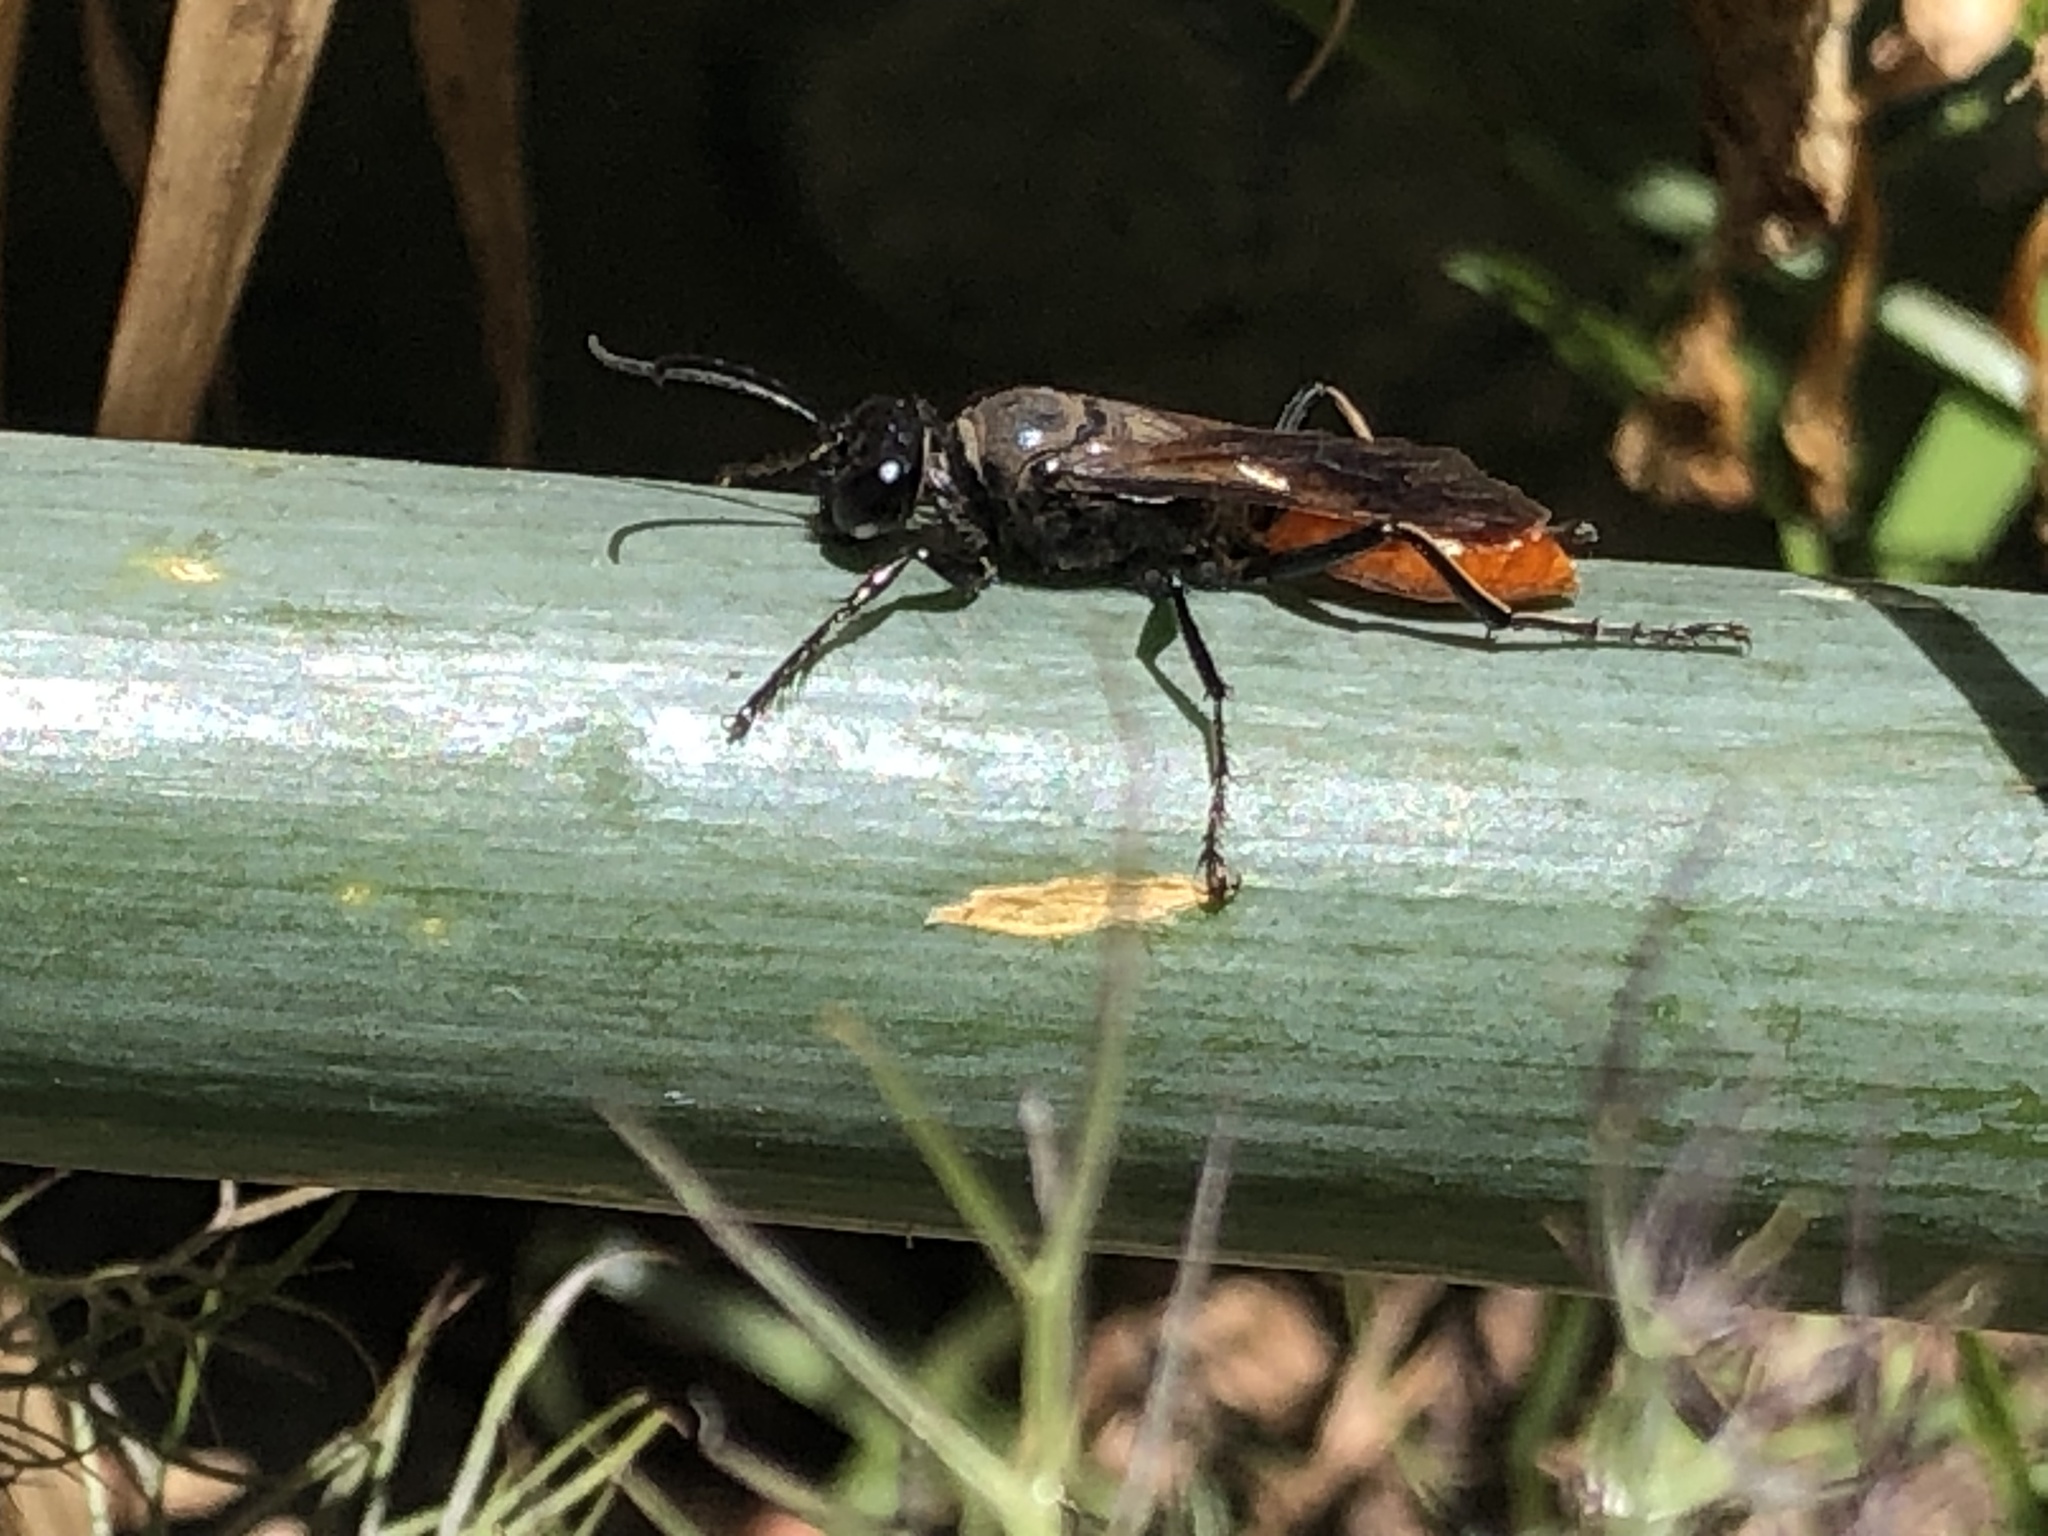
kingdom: Animalia
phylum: Arthropoda
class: Insecta
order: Hymenoptera
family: Sphecidae
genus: Sphex
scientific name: Sphex lucae
